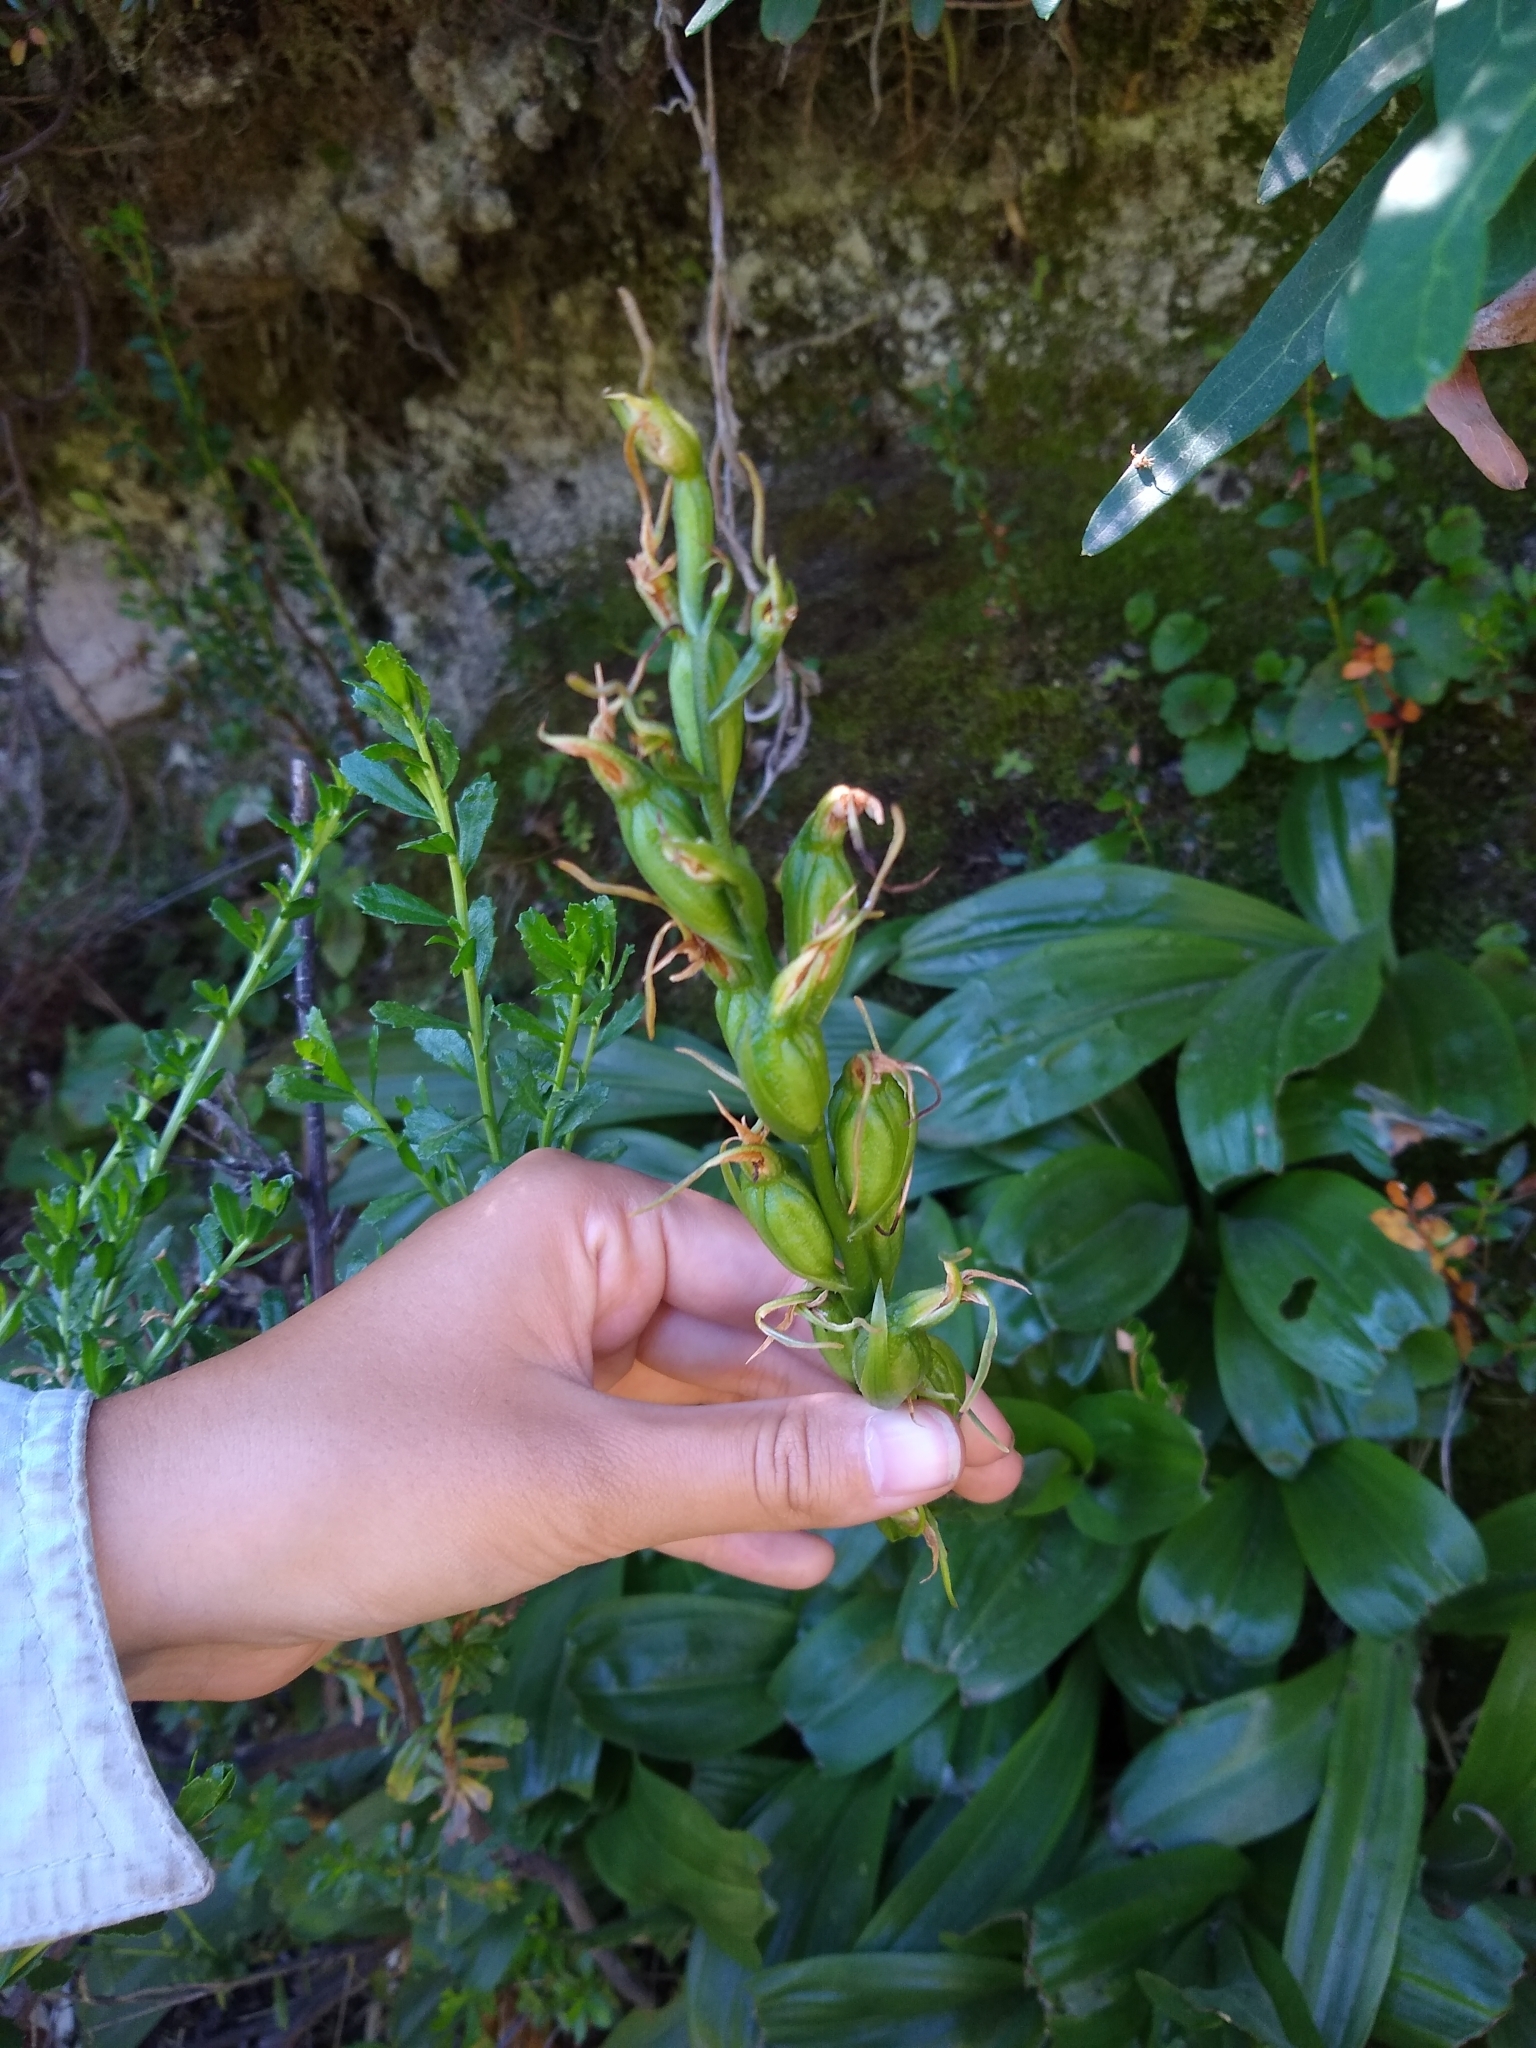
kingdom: Plantae
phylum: Tracheophyta
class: Liliopsida
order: Asparagales
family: Orchidaceae
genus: Gavilea
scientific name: Gavilea araucana
